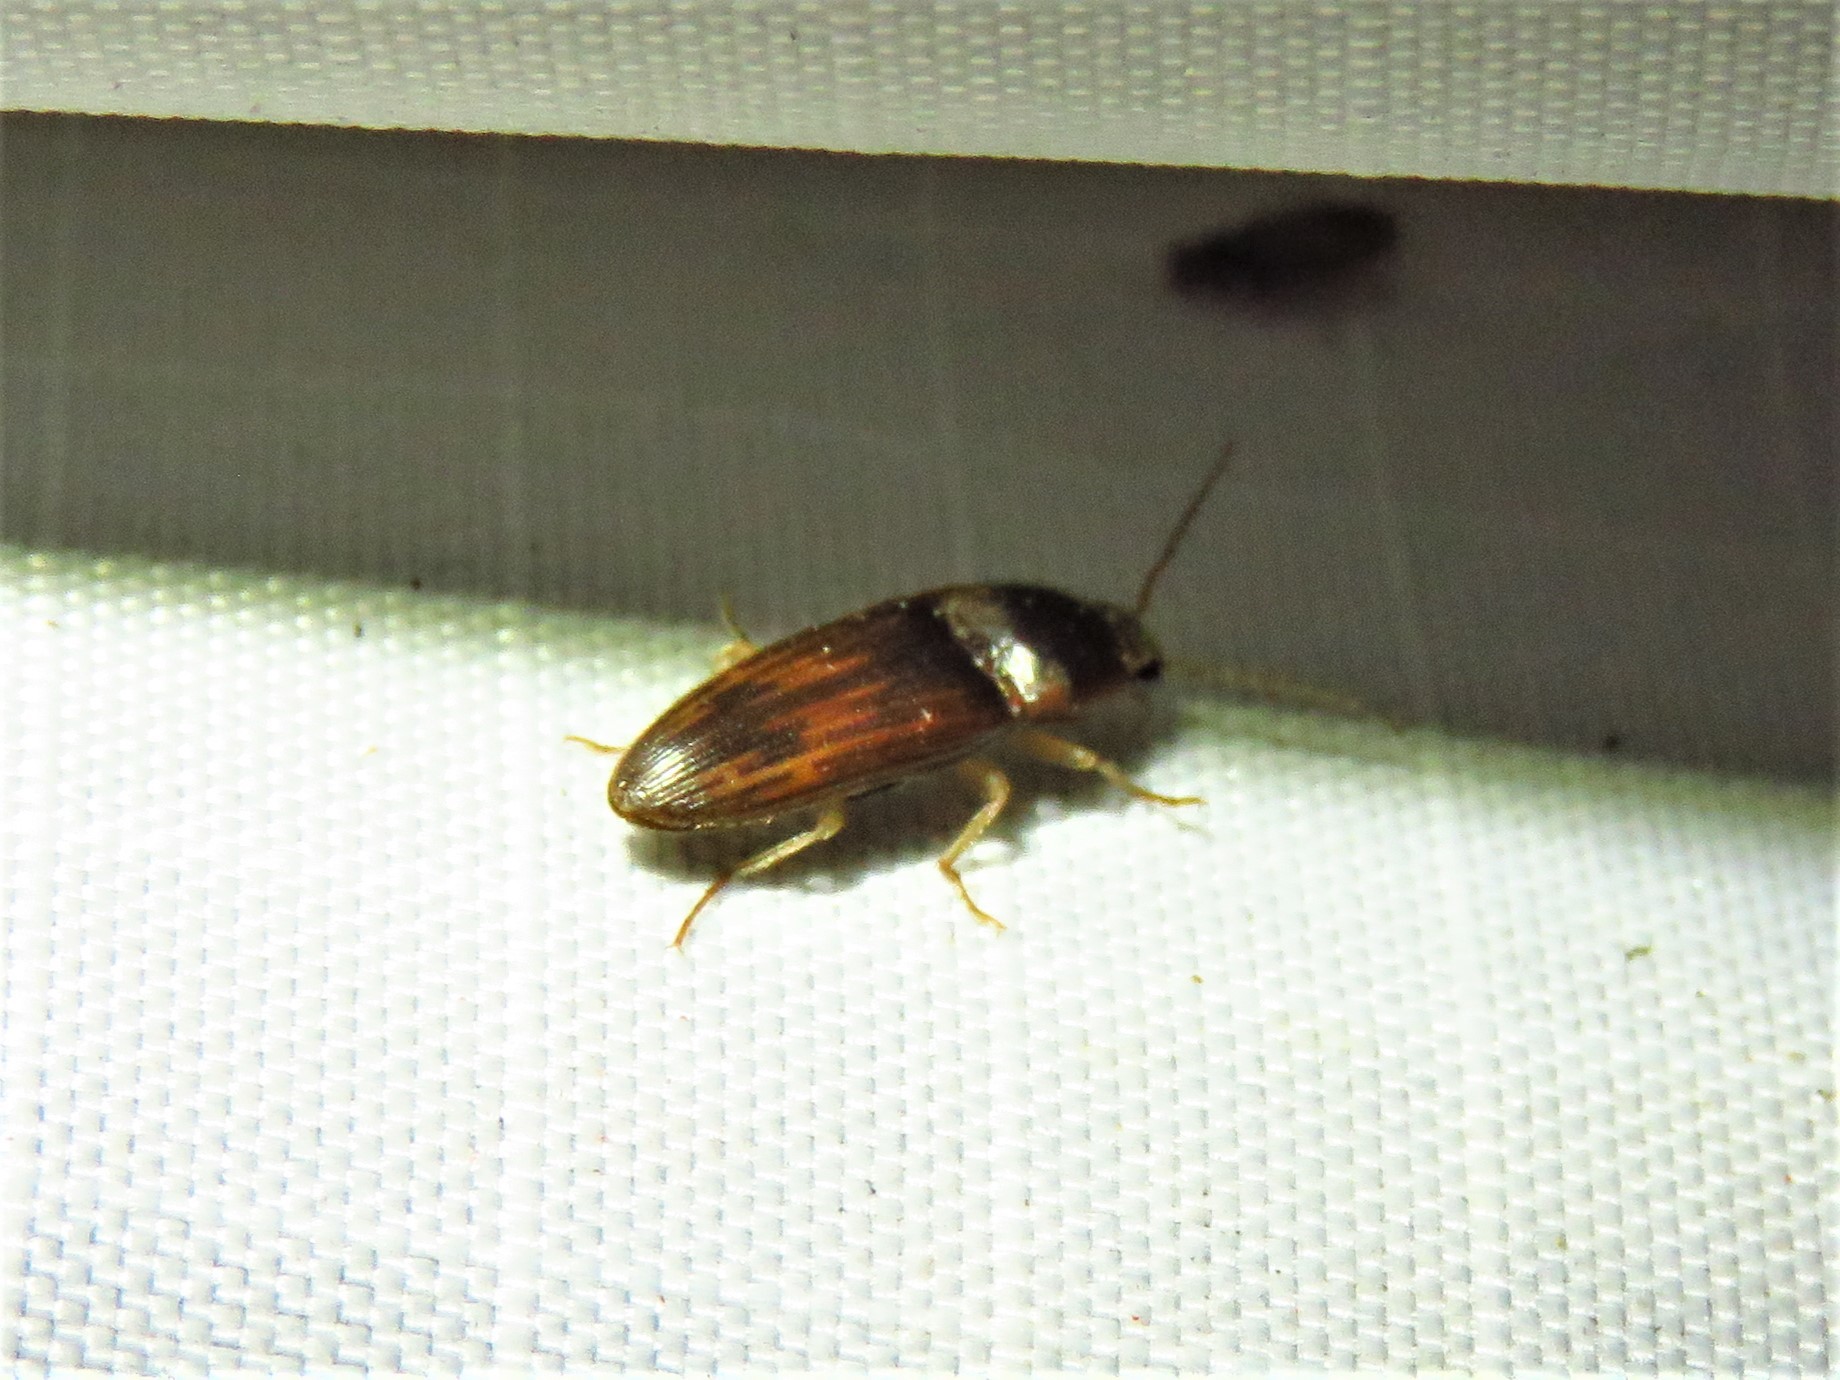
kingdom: Animalia
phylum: Arthropoda
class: Insecta
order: Coleoptera
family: Elateridae
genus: Monocrepidius
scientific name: Monocrepidius
